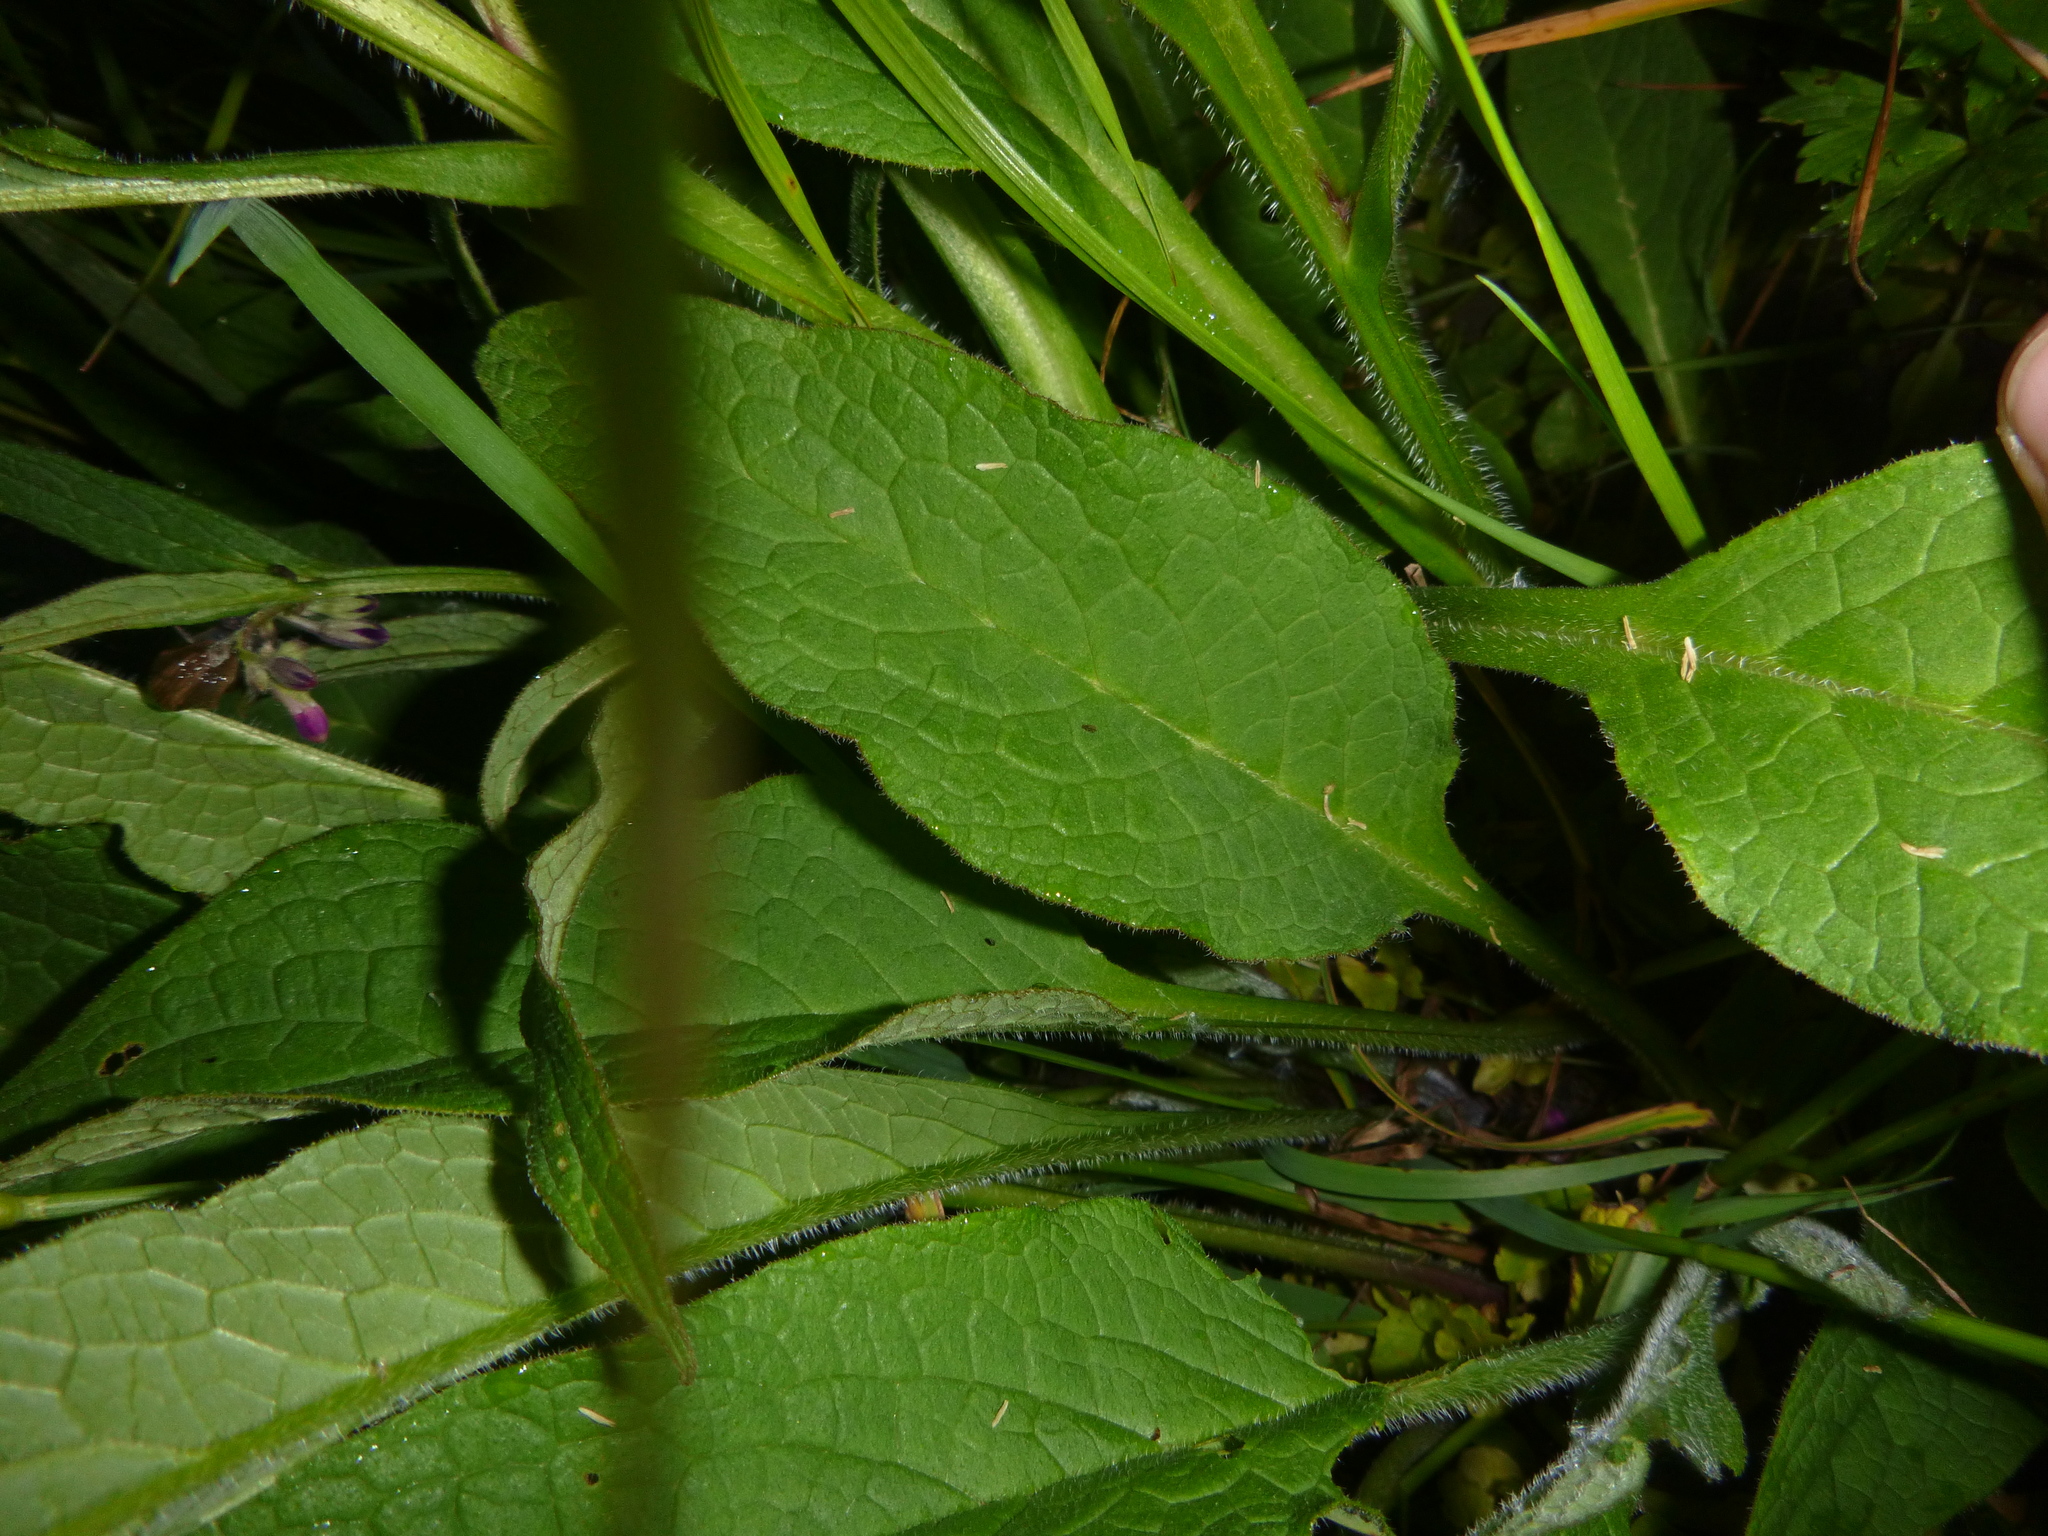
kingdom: Plantae
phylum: Tracheophyta
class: Magnoliopsida
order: Boraginales
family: Boraginaceae
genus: Symphytum
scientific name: Symphytum officinale
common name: Common comfrey
